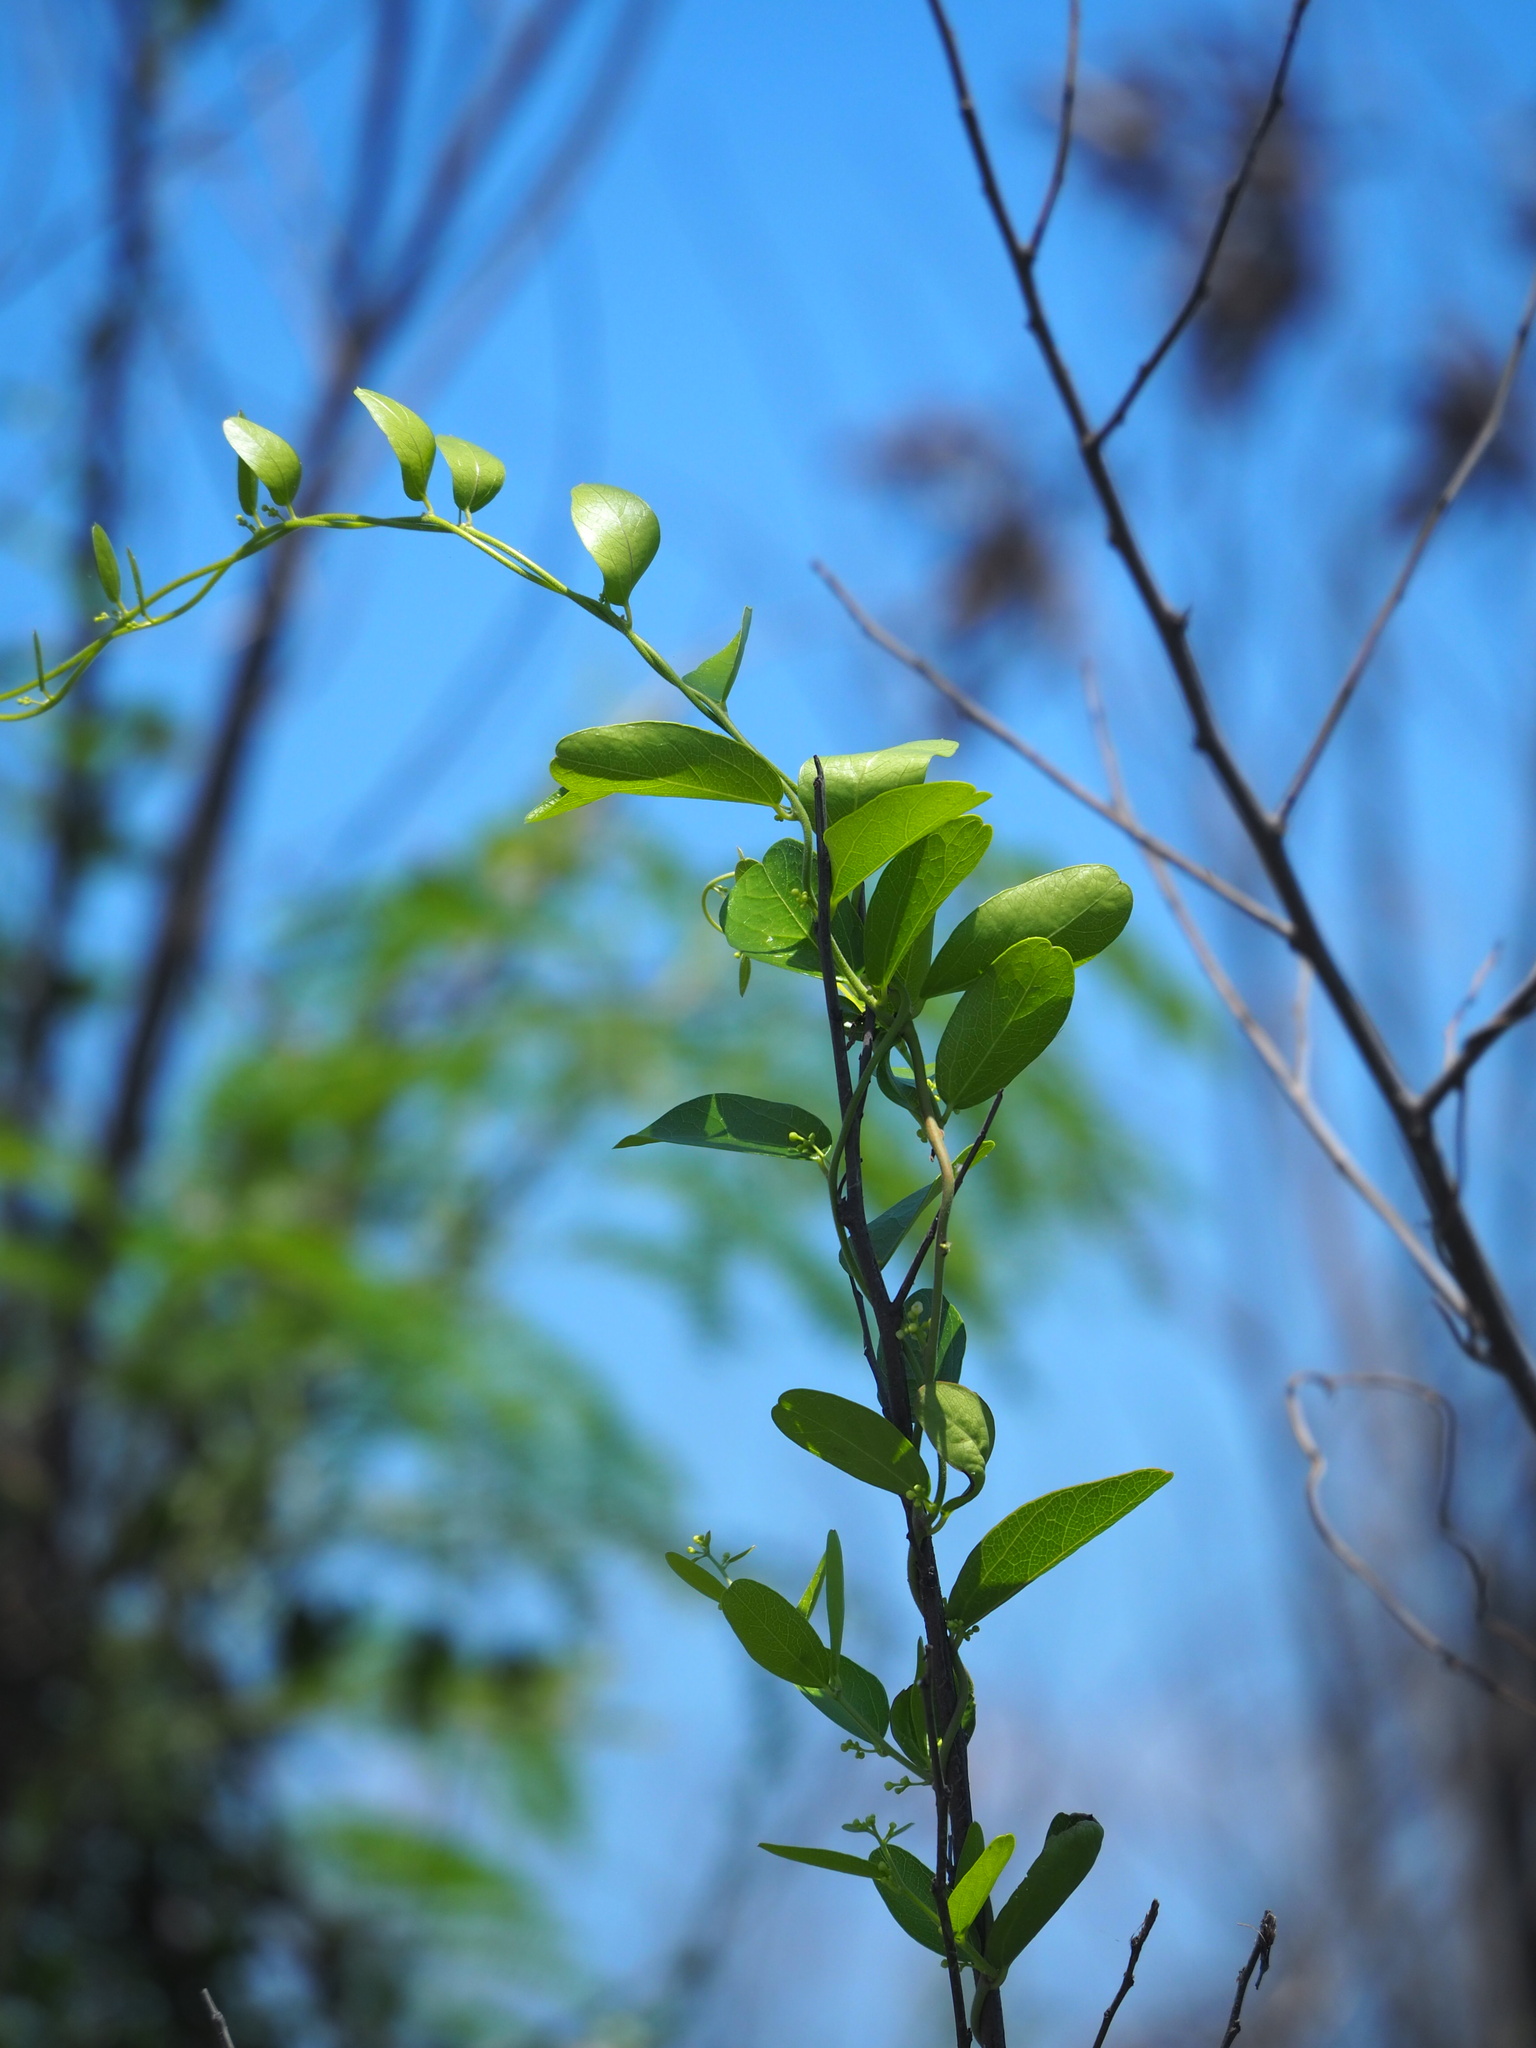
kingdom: Plantae
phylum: Tracheophyta
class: Magnoliopsida
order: Ranunculales
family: Menispermaceae
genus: Cocculus
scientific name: Cocculus orbiculatus
